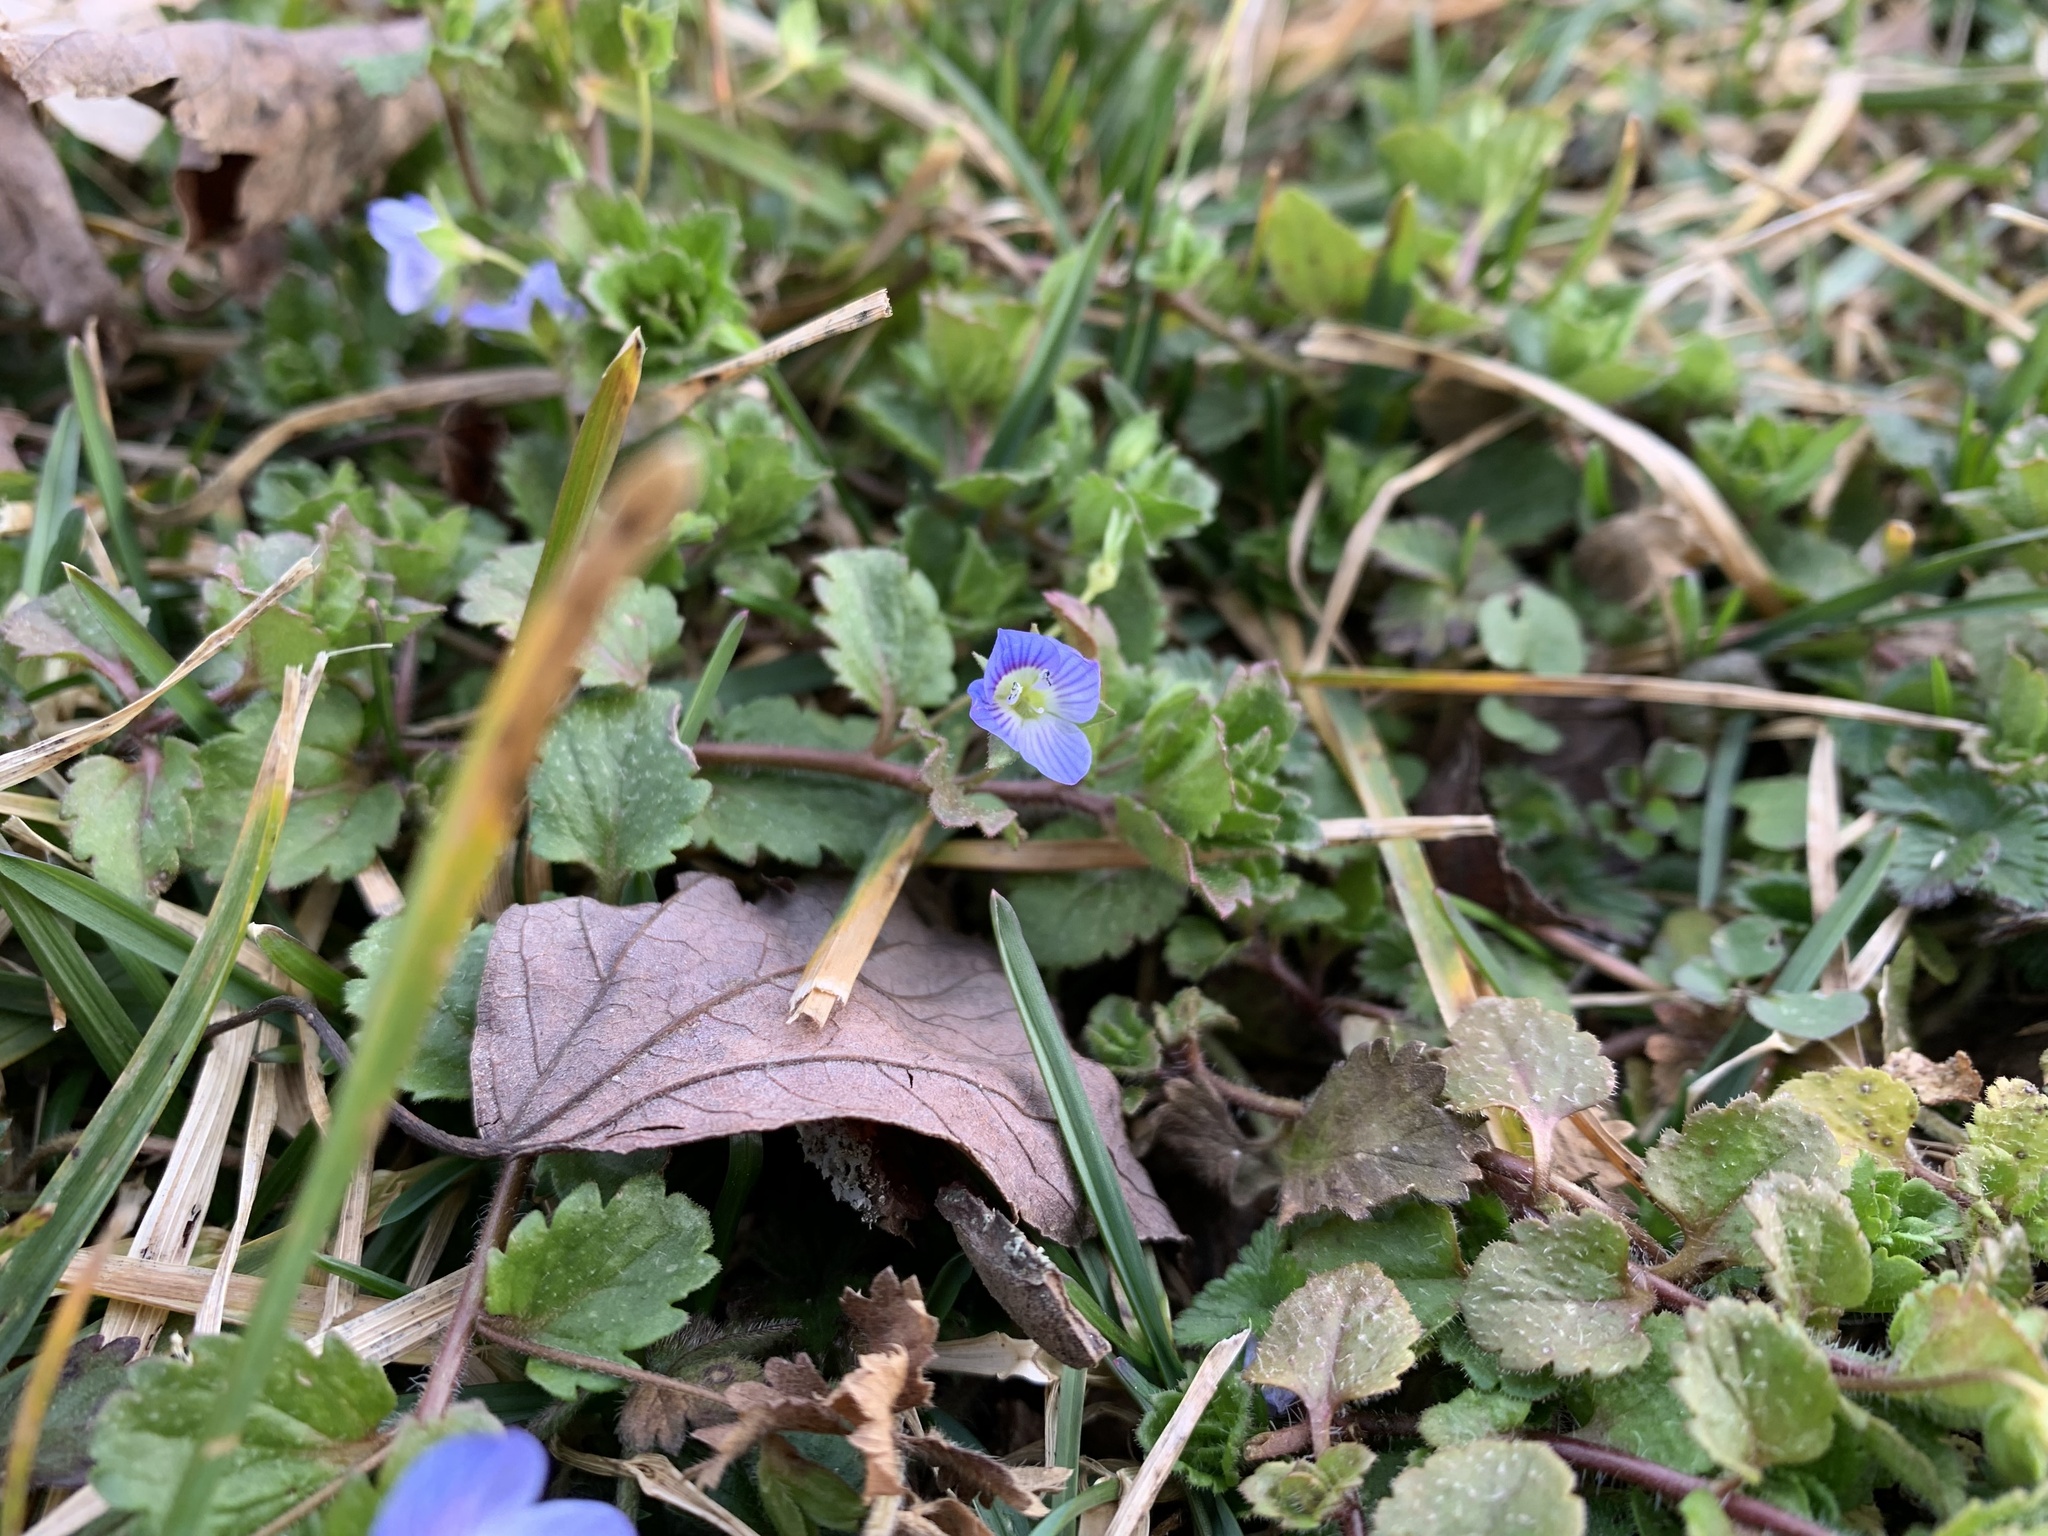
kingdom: Plantae
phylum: Tracheophyta
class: Magnoliopsida
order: Lamiales
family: Plantaginaceae
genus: Veronica
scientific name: Veronica persica
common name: Common field-speedwell
